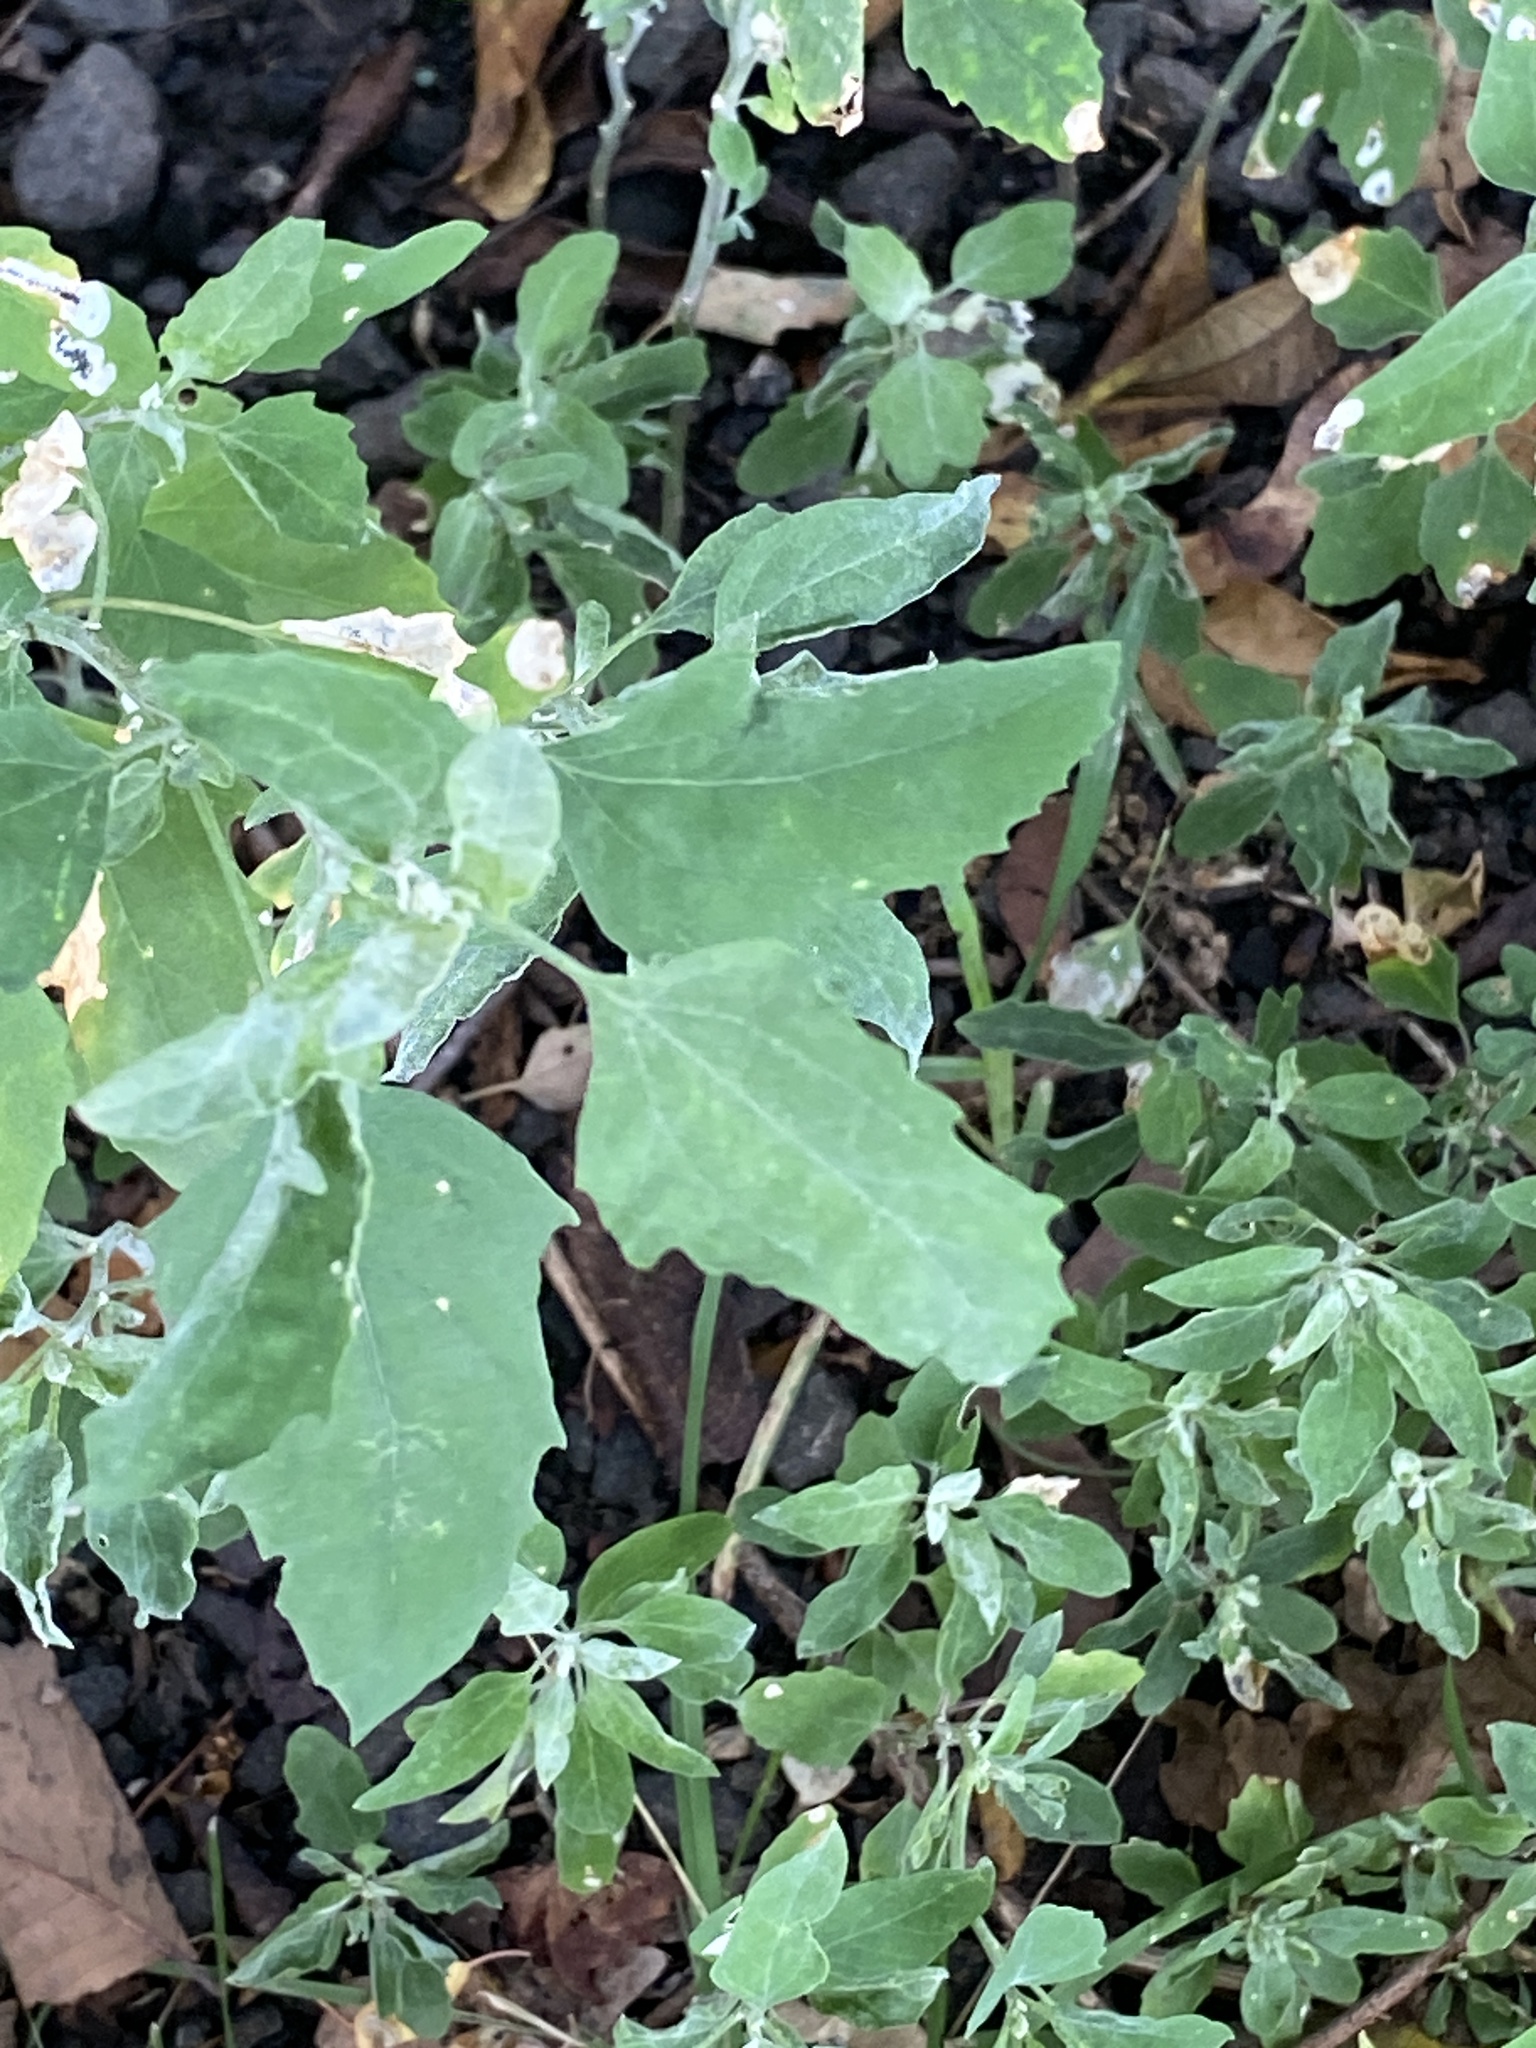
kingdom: Plantae
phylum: Tracheophyta
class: Magnoliopsida
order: Caryophyllales
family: Amaranthaceae
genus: Chenopodium
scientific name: Chenopodium album
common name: Fat-hen
